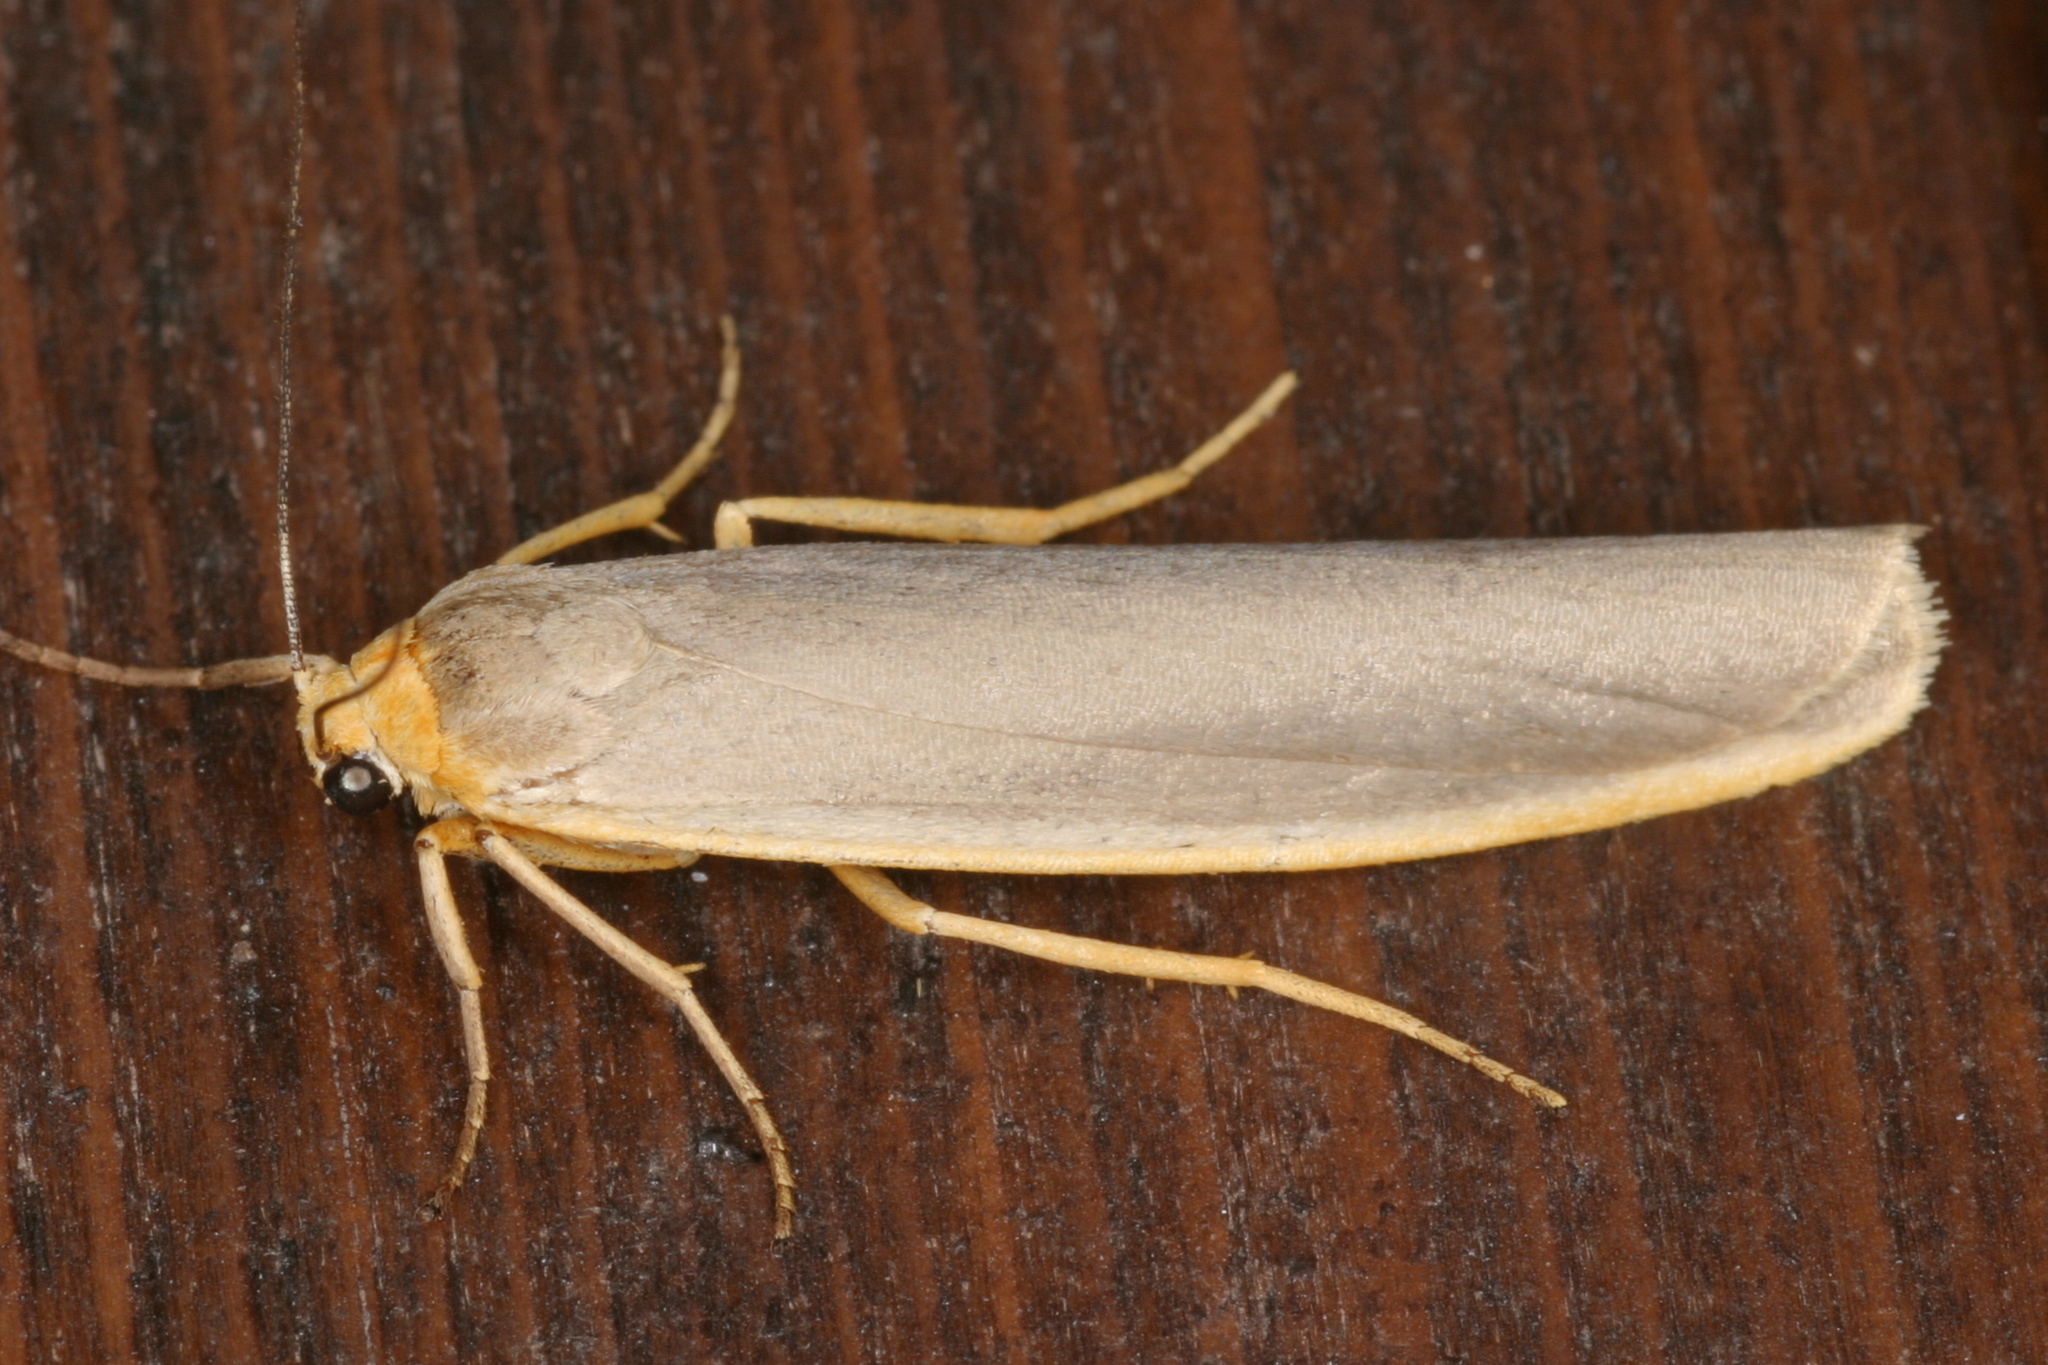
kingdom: Animalia
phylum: Arthropoda
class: Insecta
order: Lepidoptera
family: Erebidae
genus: Manulea
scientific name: Manulea complana
